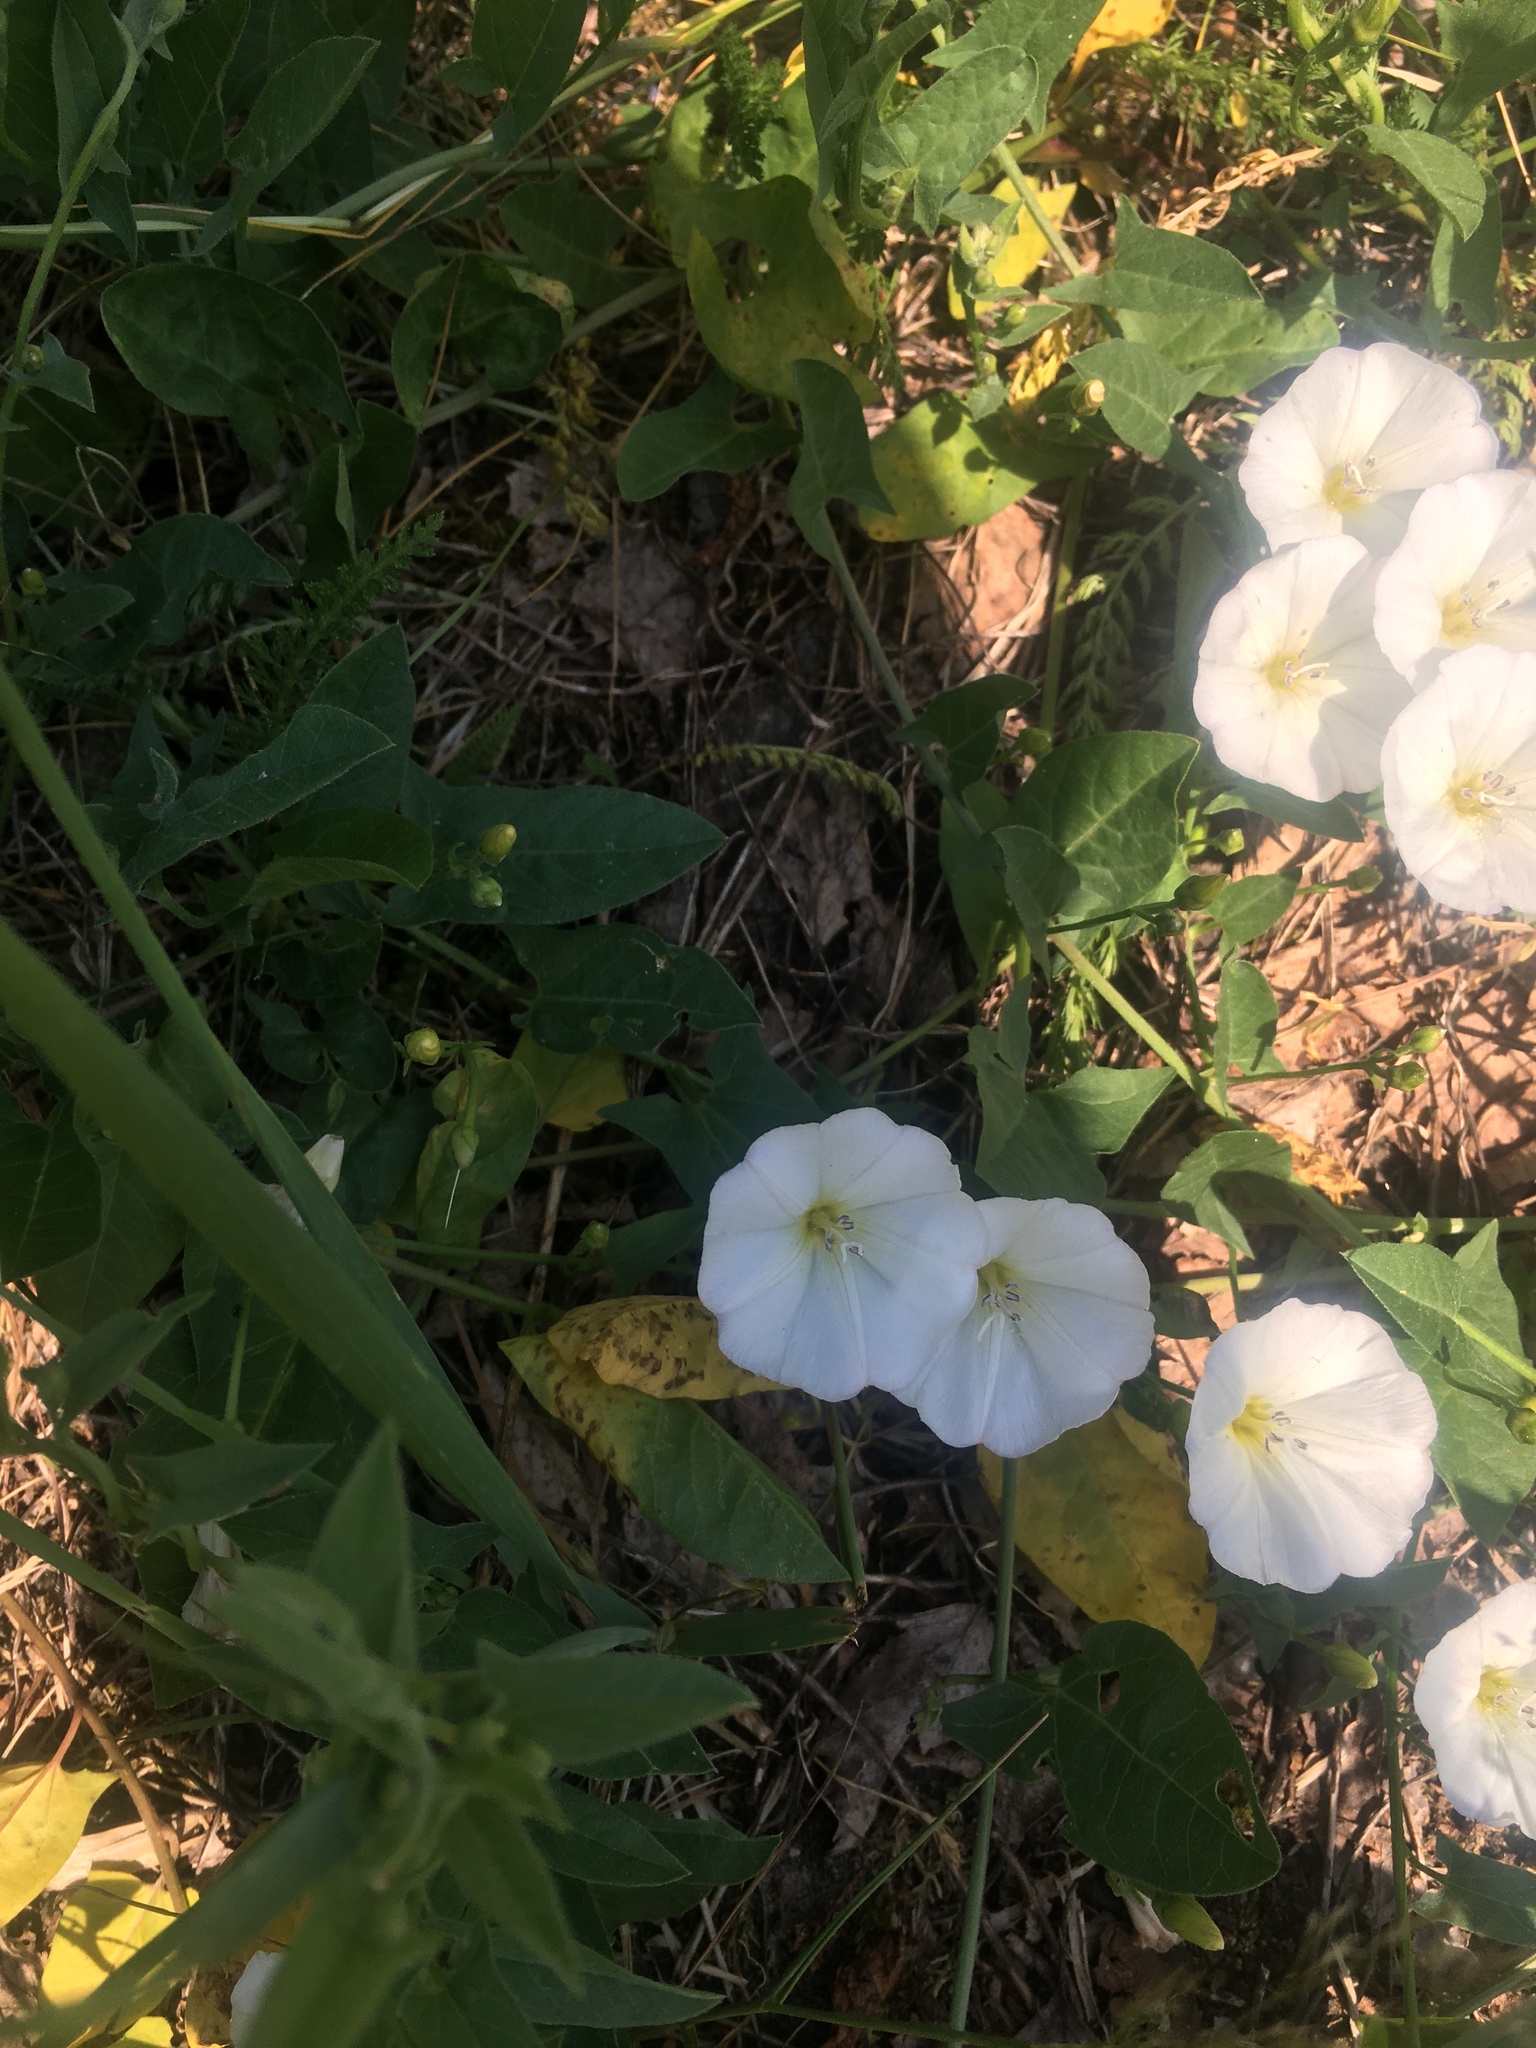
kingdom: Plantae
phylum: Tracheophyta
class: Magnoliopsida
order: Solanales
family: Convolvulaceae
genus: Convolvulus
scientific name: Convolvulus arvensis
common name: Field bindweed
